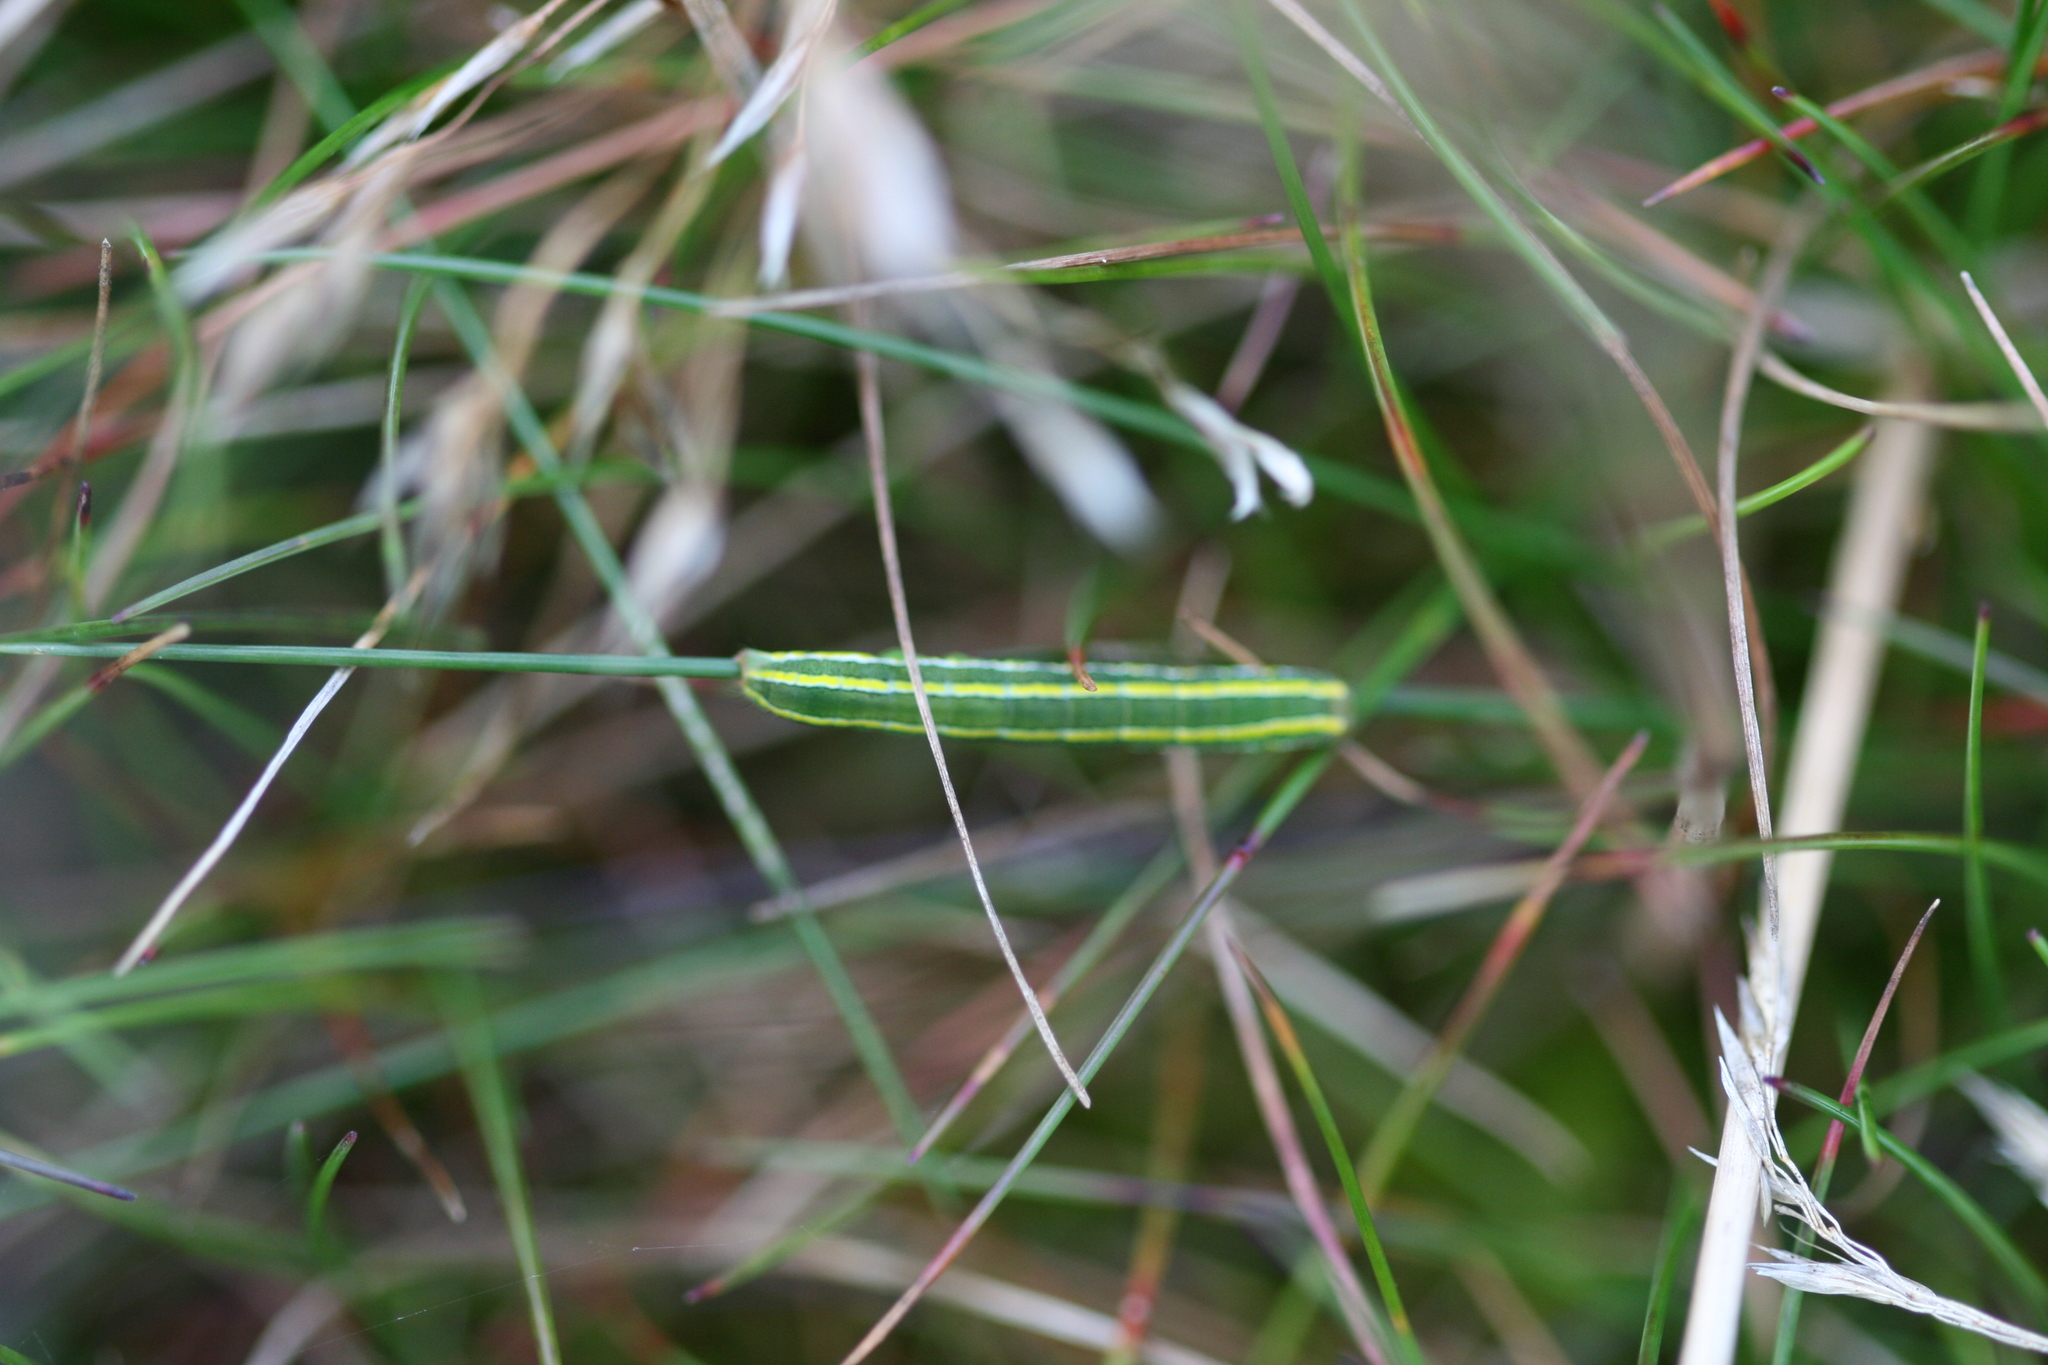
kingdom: Animalia
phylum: Arthropoda
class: Insecta
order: Lepidoptera
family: Noctuidae
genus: Ceramica
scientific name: Ceramica pisi
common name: Broom moth
